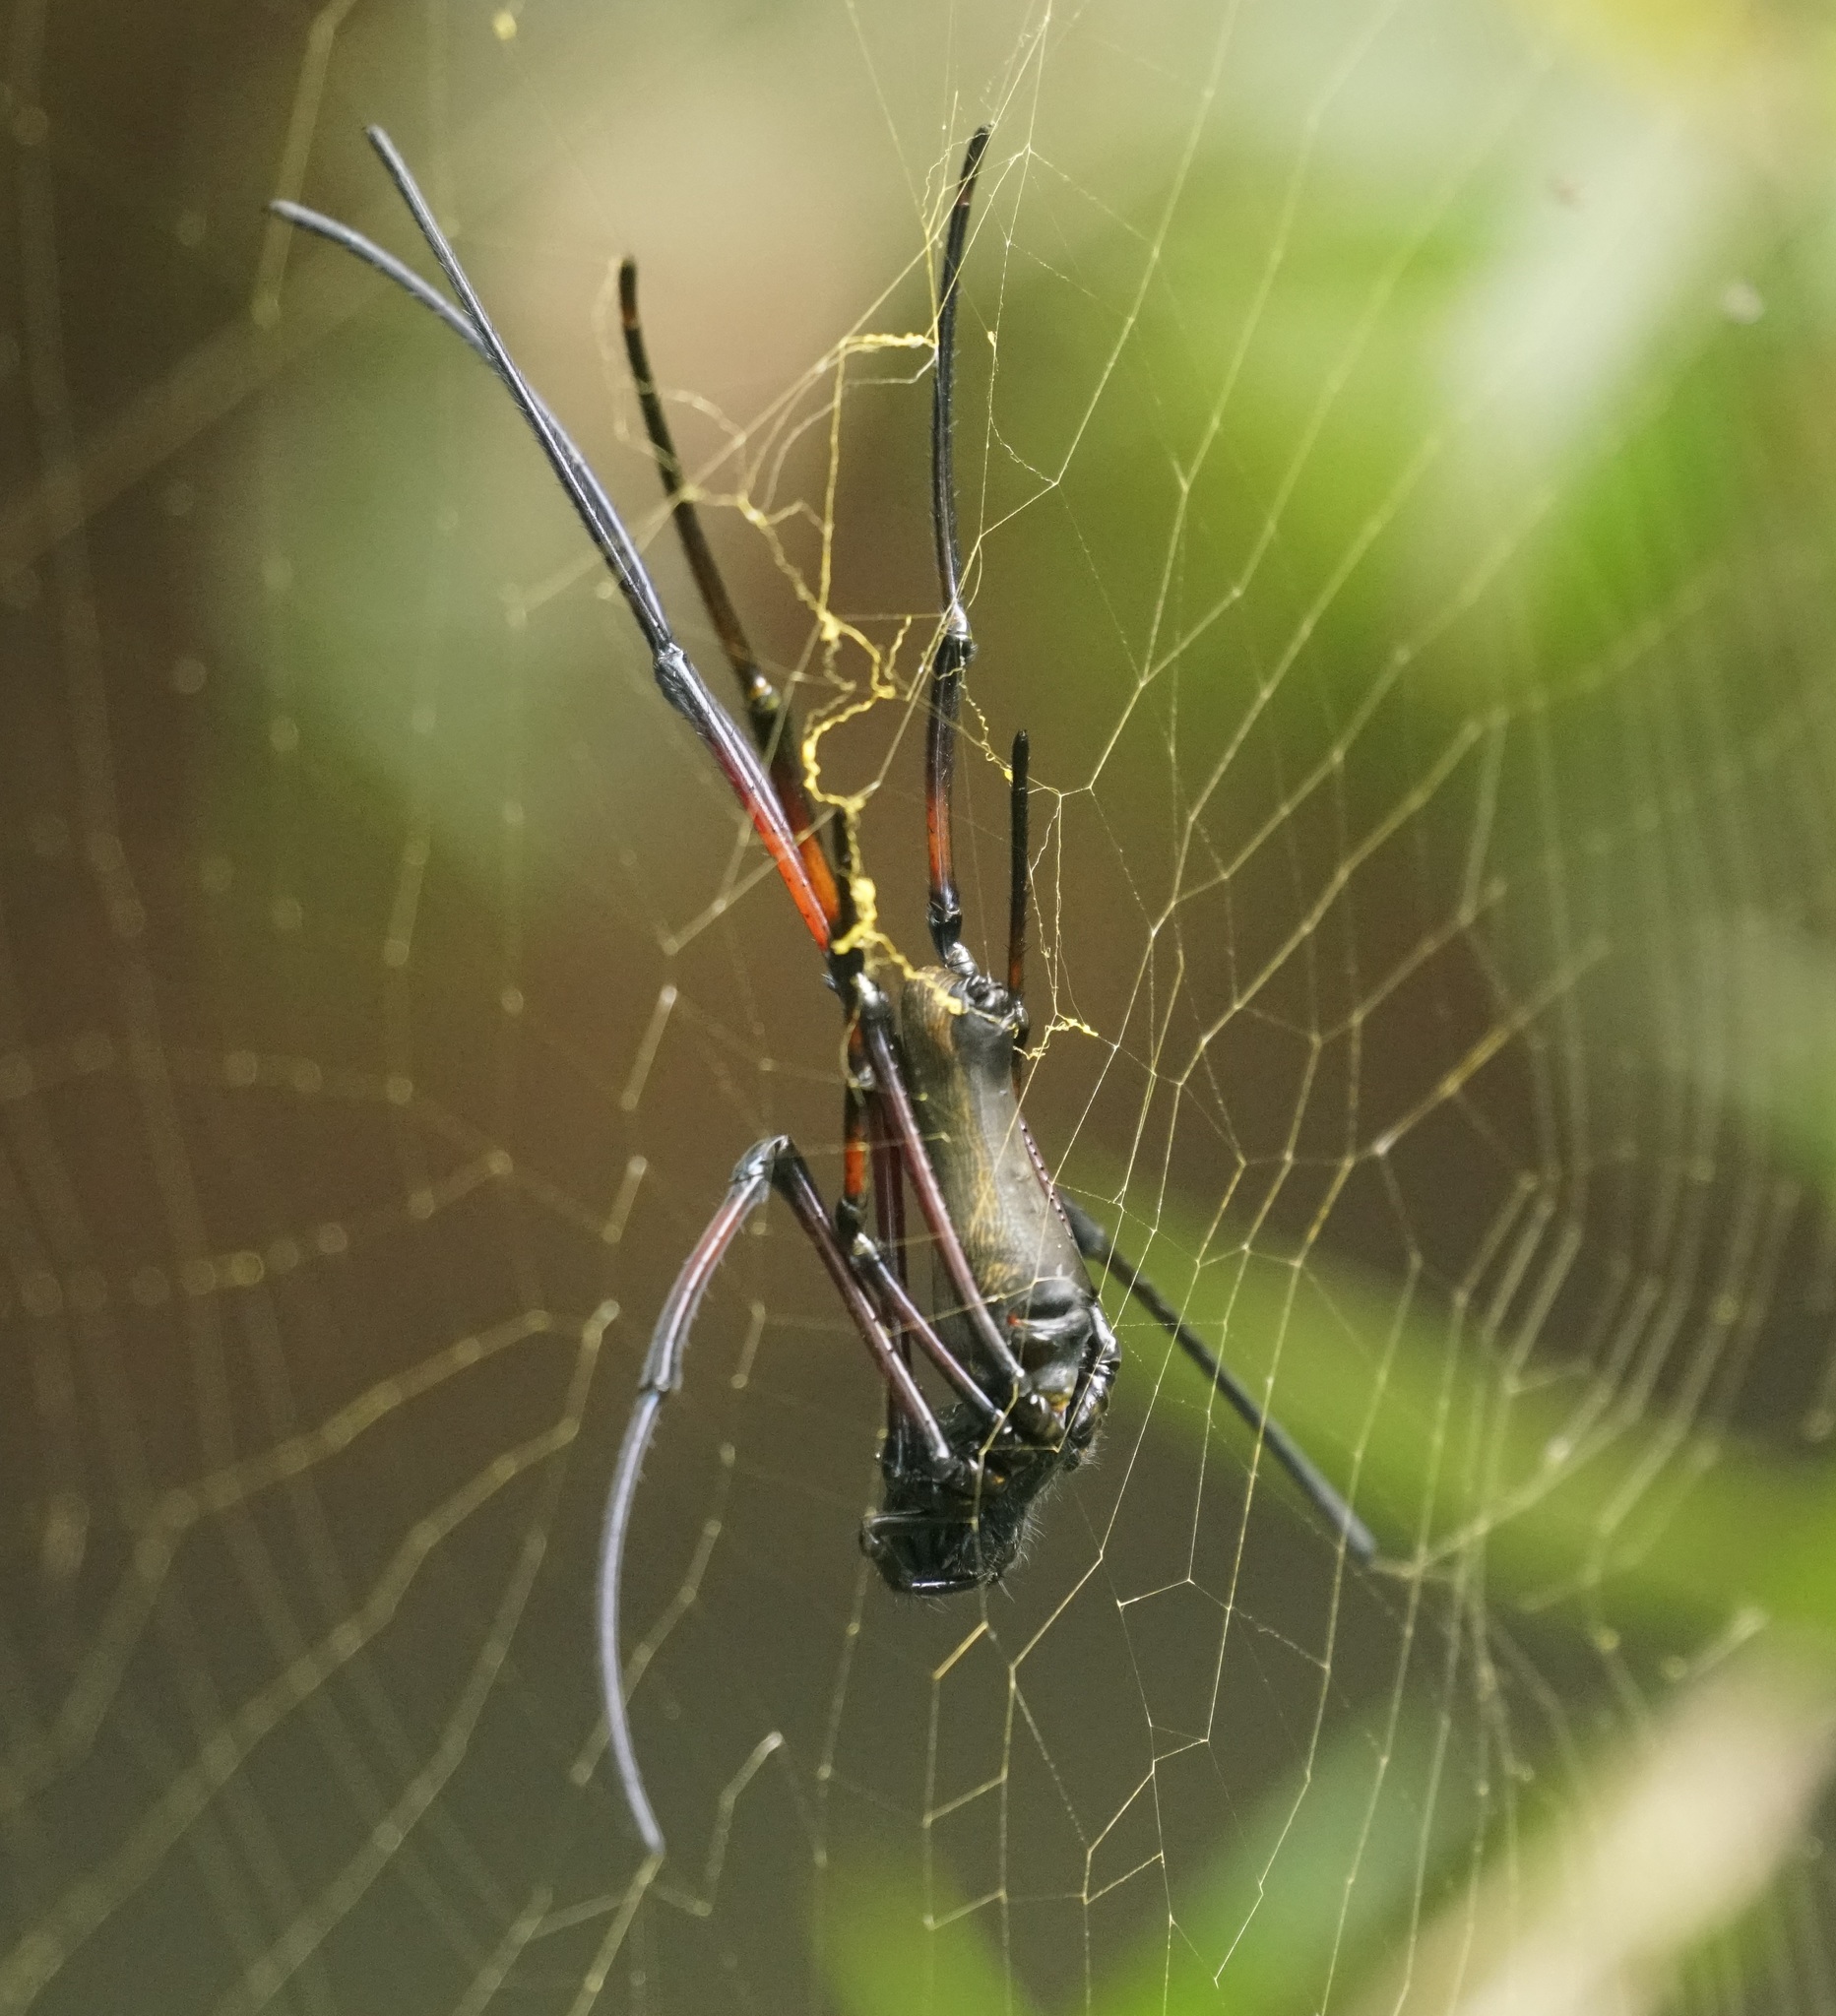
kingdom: Animalia
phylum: Arthropoda
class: Arachnida
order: Araneae
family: Araneidae
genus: Nephila
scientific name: Nephila pilipes
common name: Giant golden orb weaver
